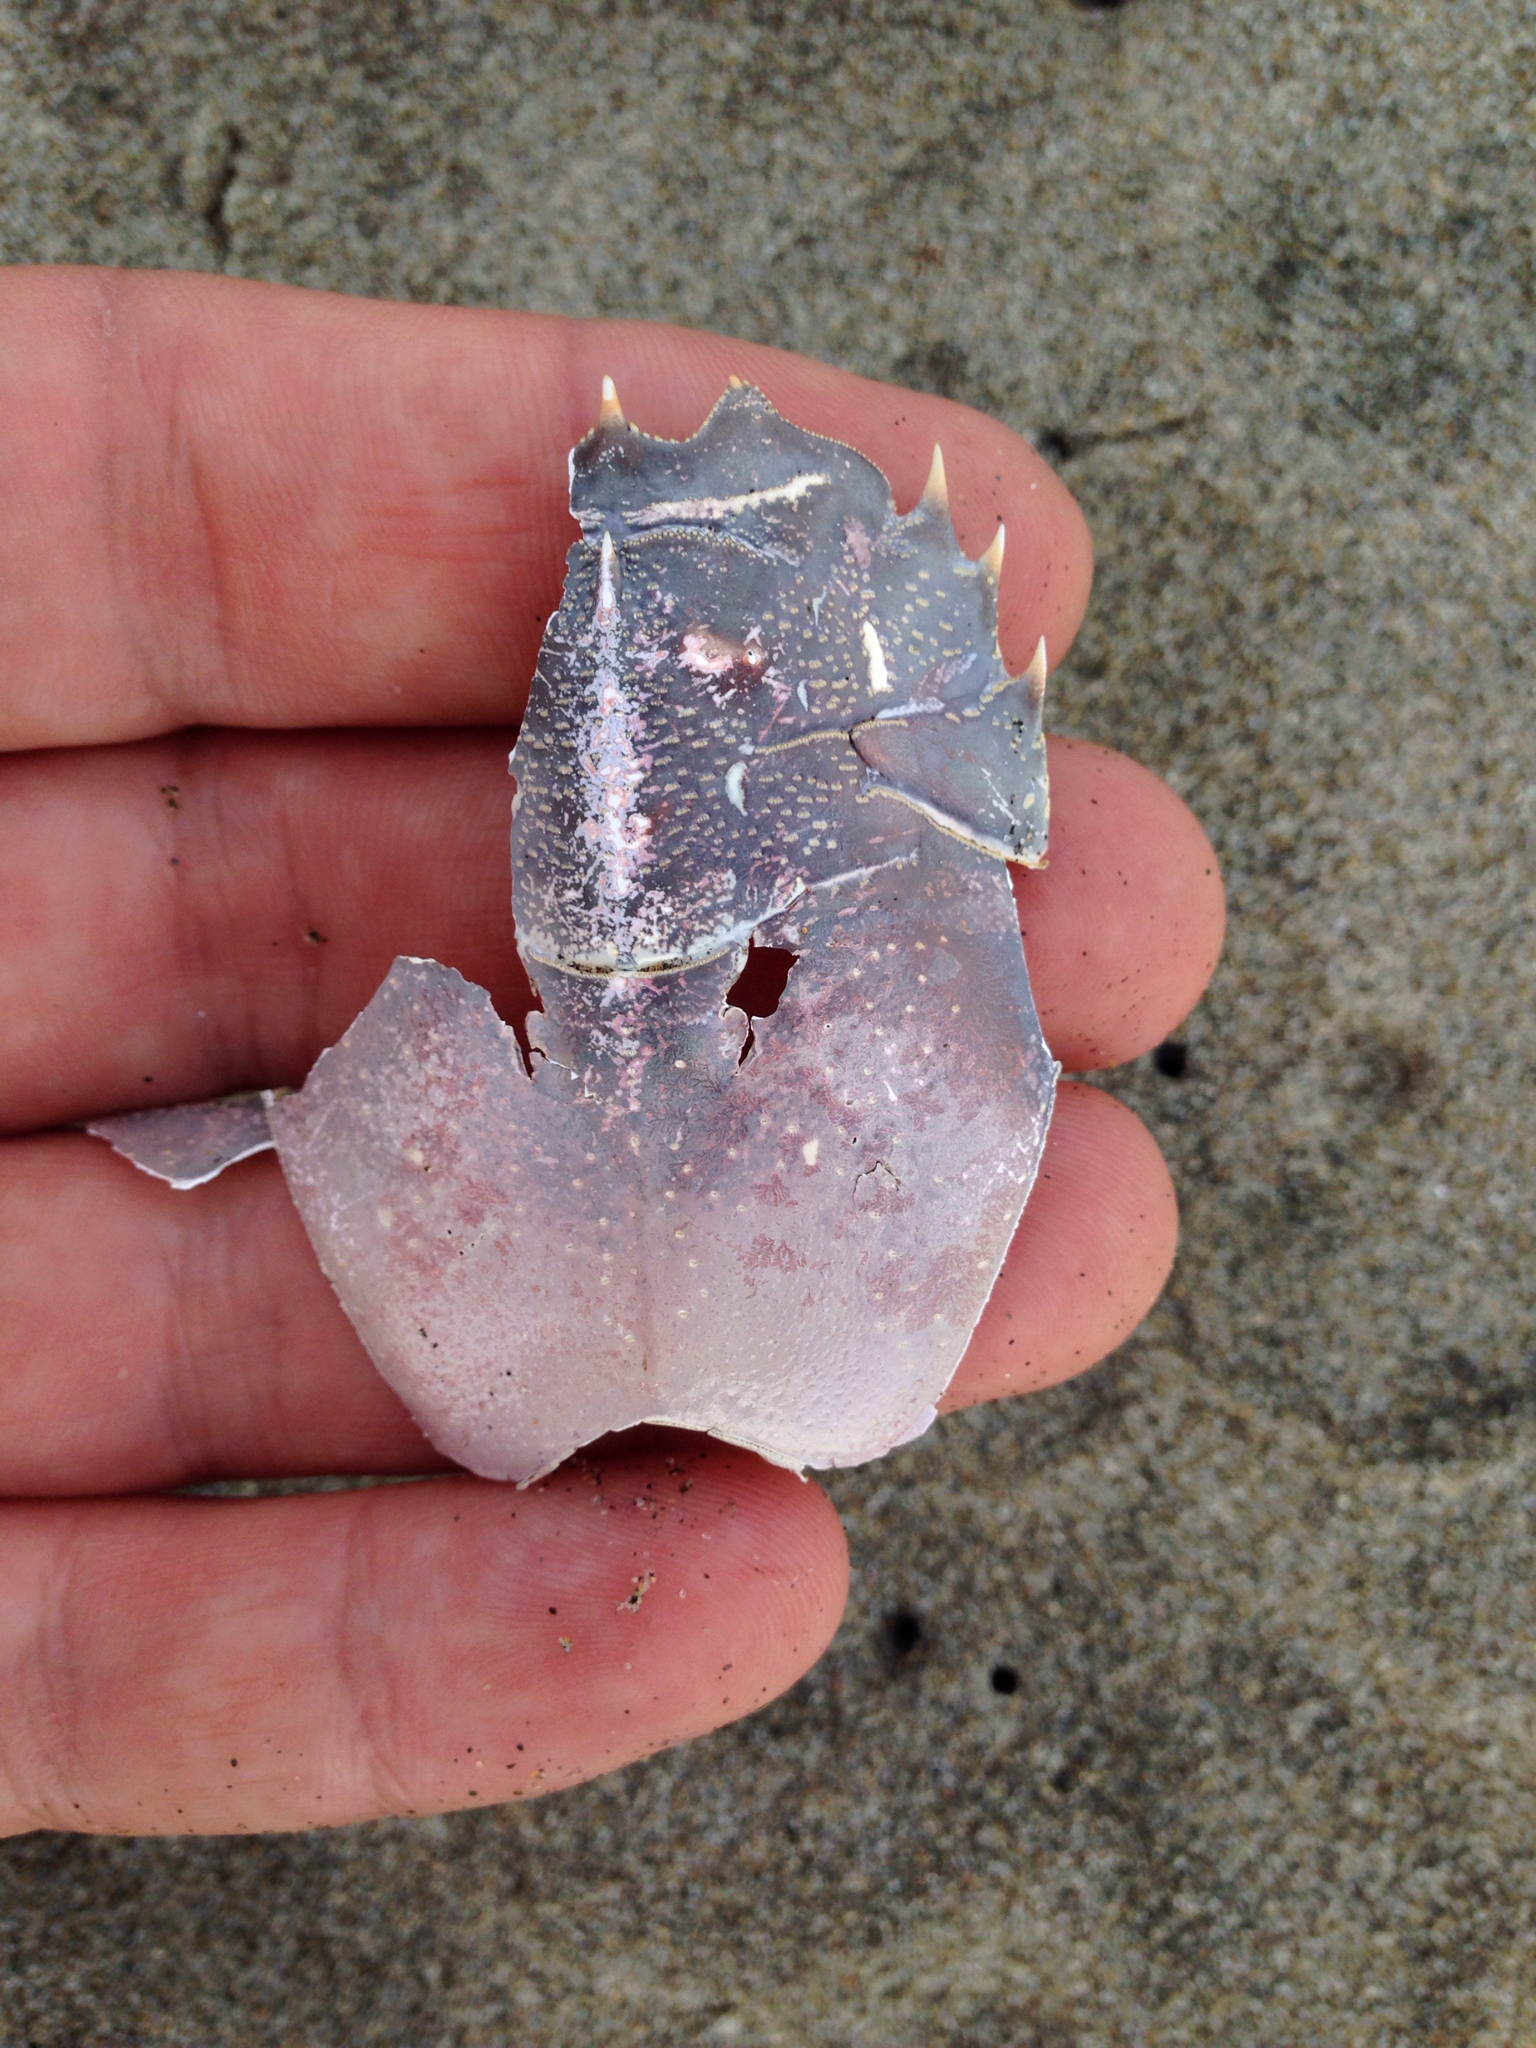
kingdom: Animalia
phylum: Arthropoda
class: Malacostraca
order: Decapoda
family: Blepharipodidae
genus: Blepharipoda
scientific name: Blepharipoda occidentalis
